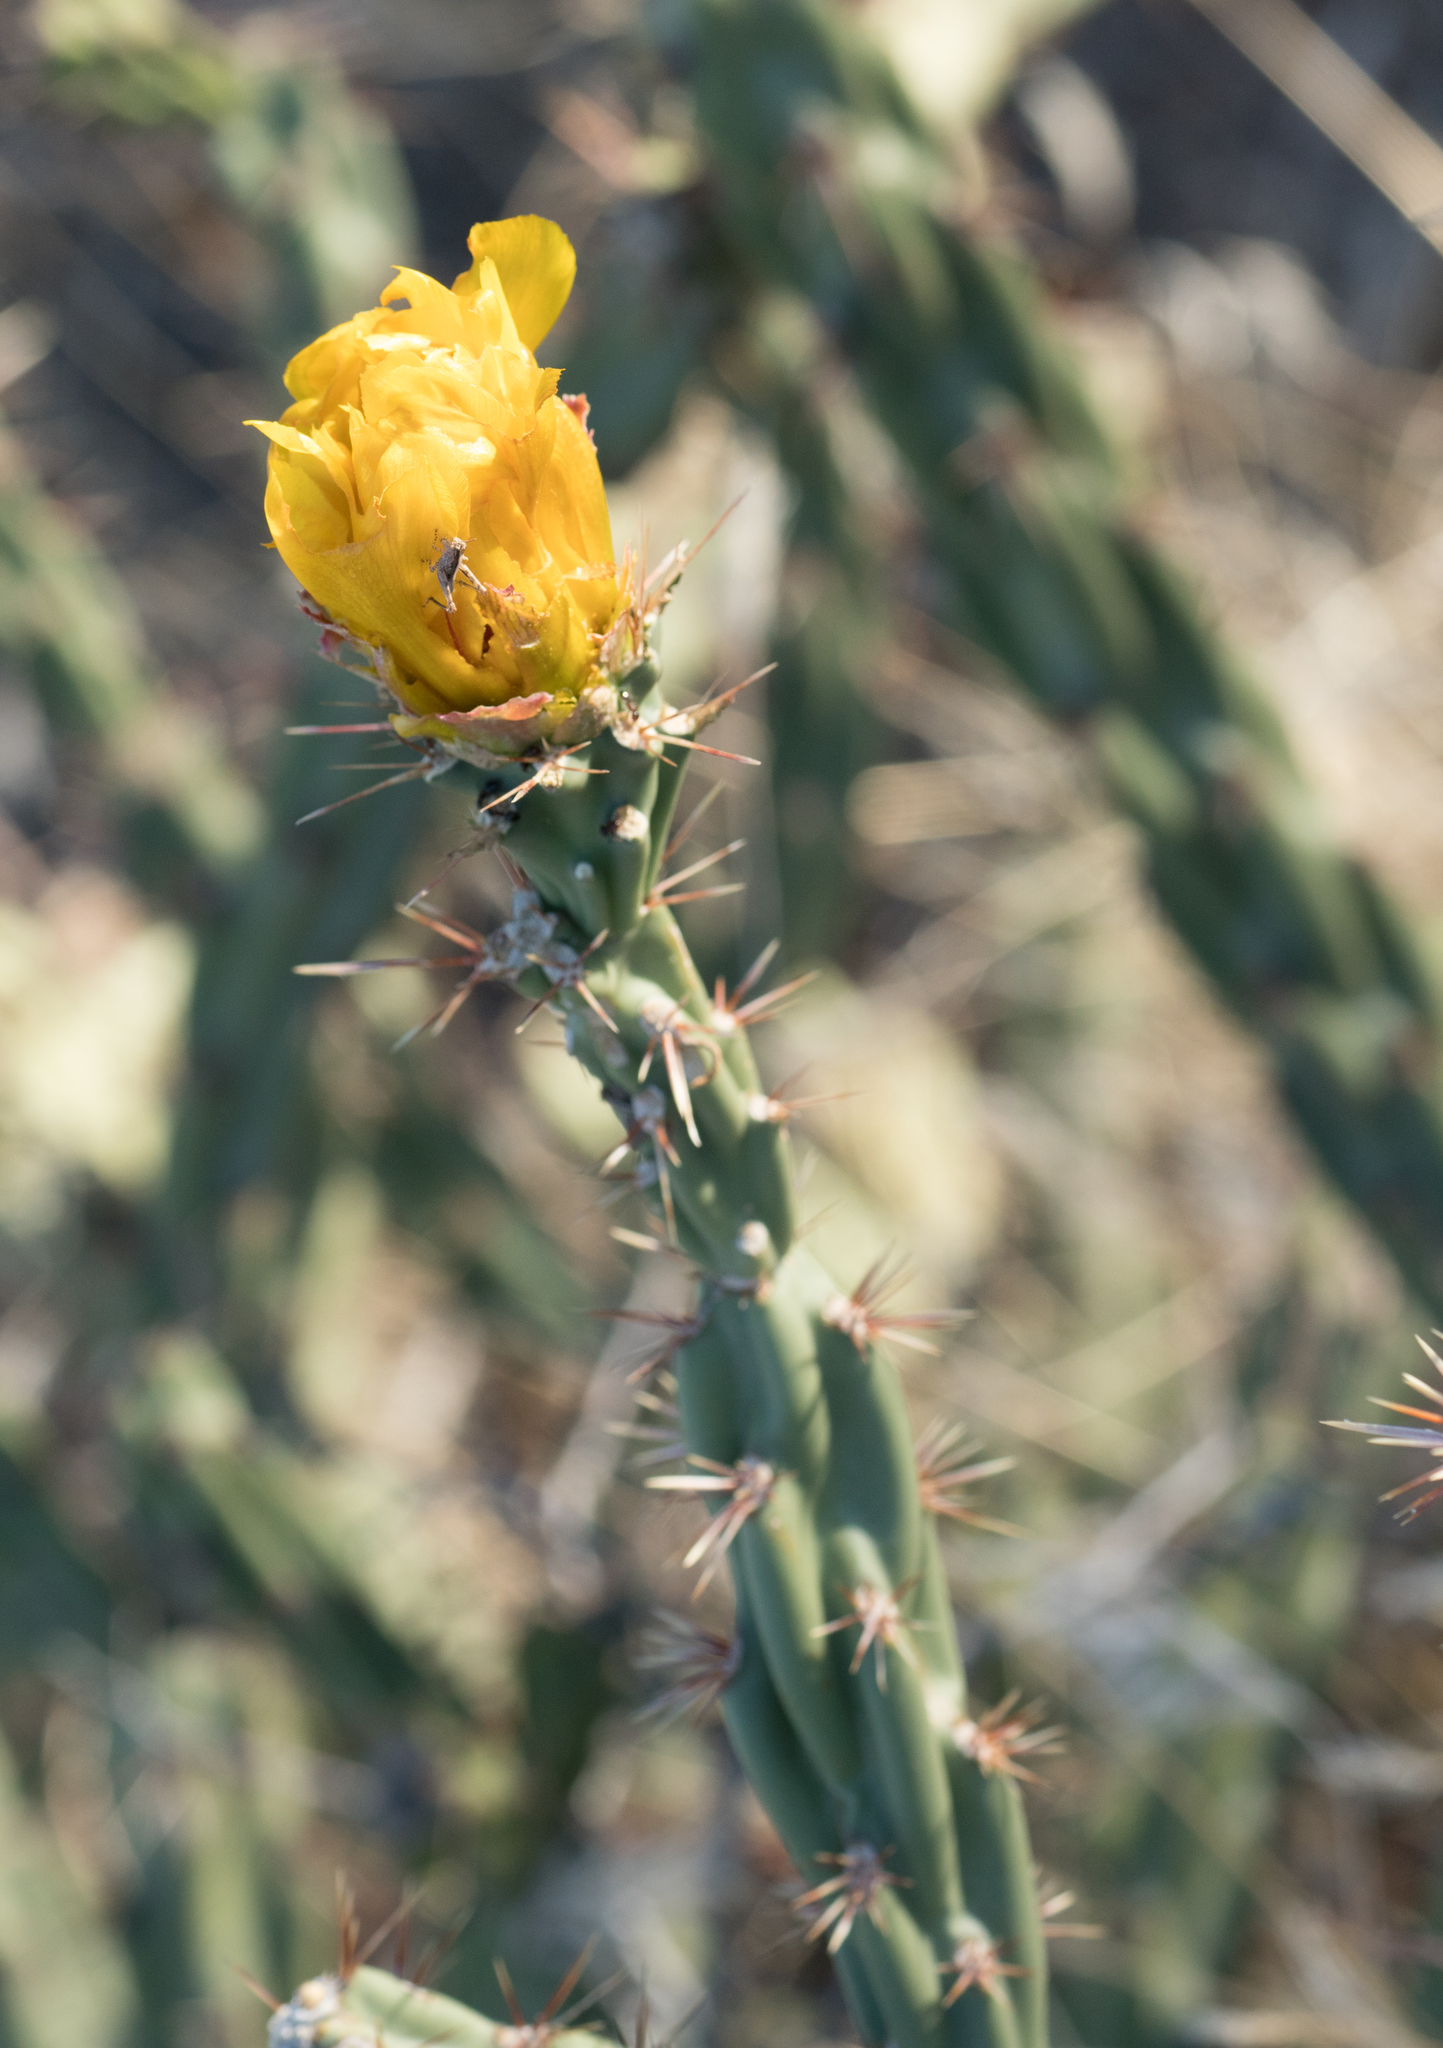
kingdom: Plantae
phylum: Tracheophyta
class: Magnoliopsida
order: Caryophyllales
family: Cactaceae
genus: Cylindropuntia
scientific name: Cylindropuntia acanthocarpa
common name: Buckhorn cholla
